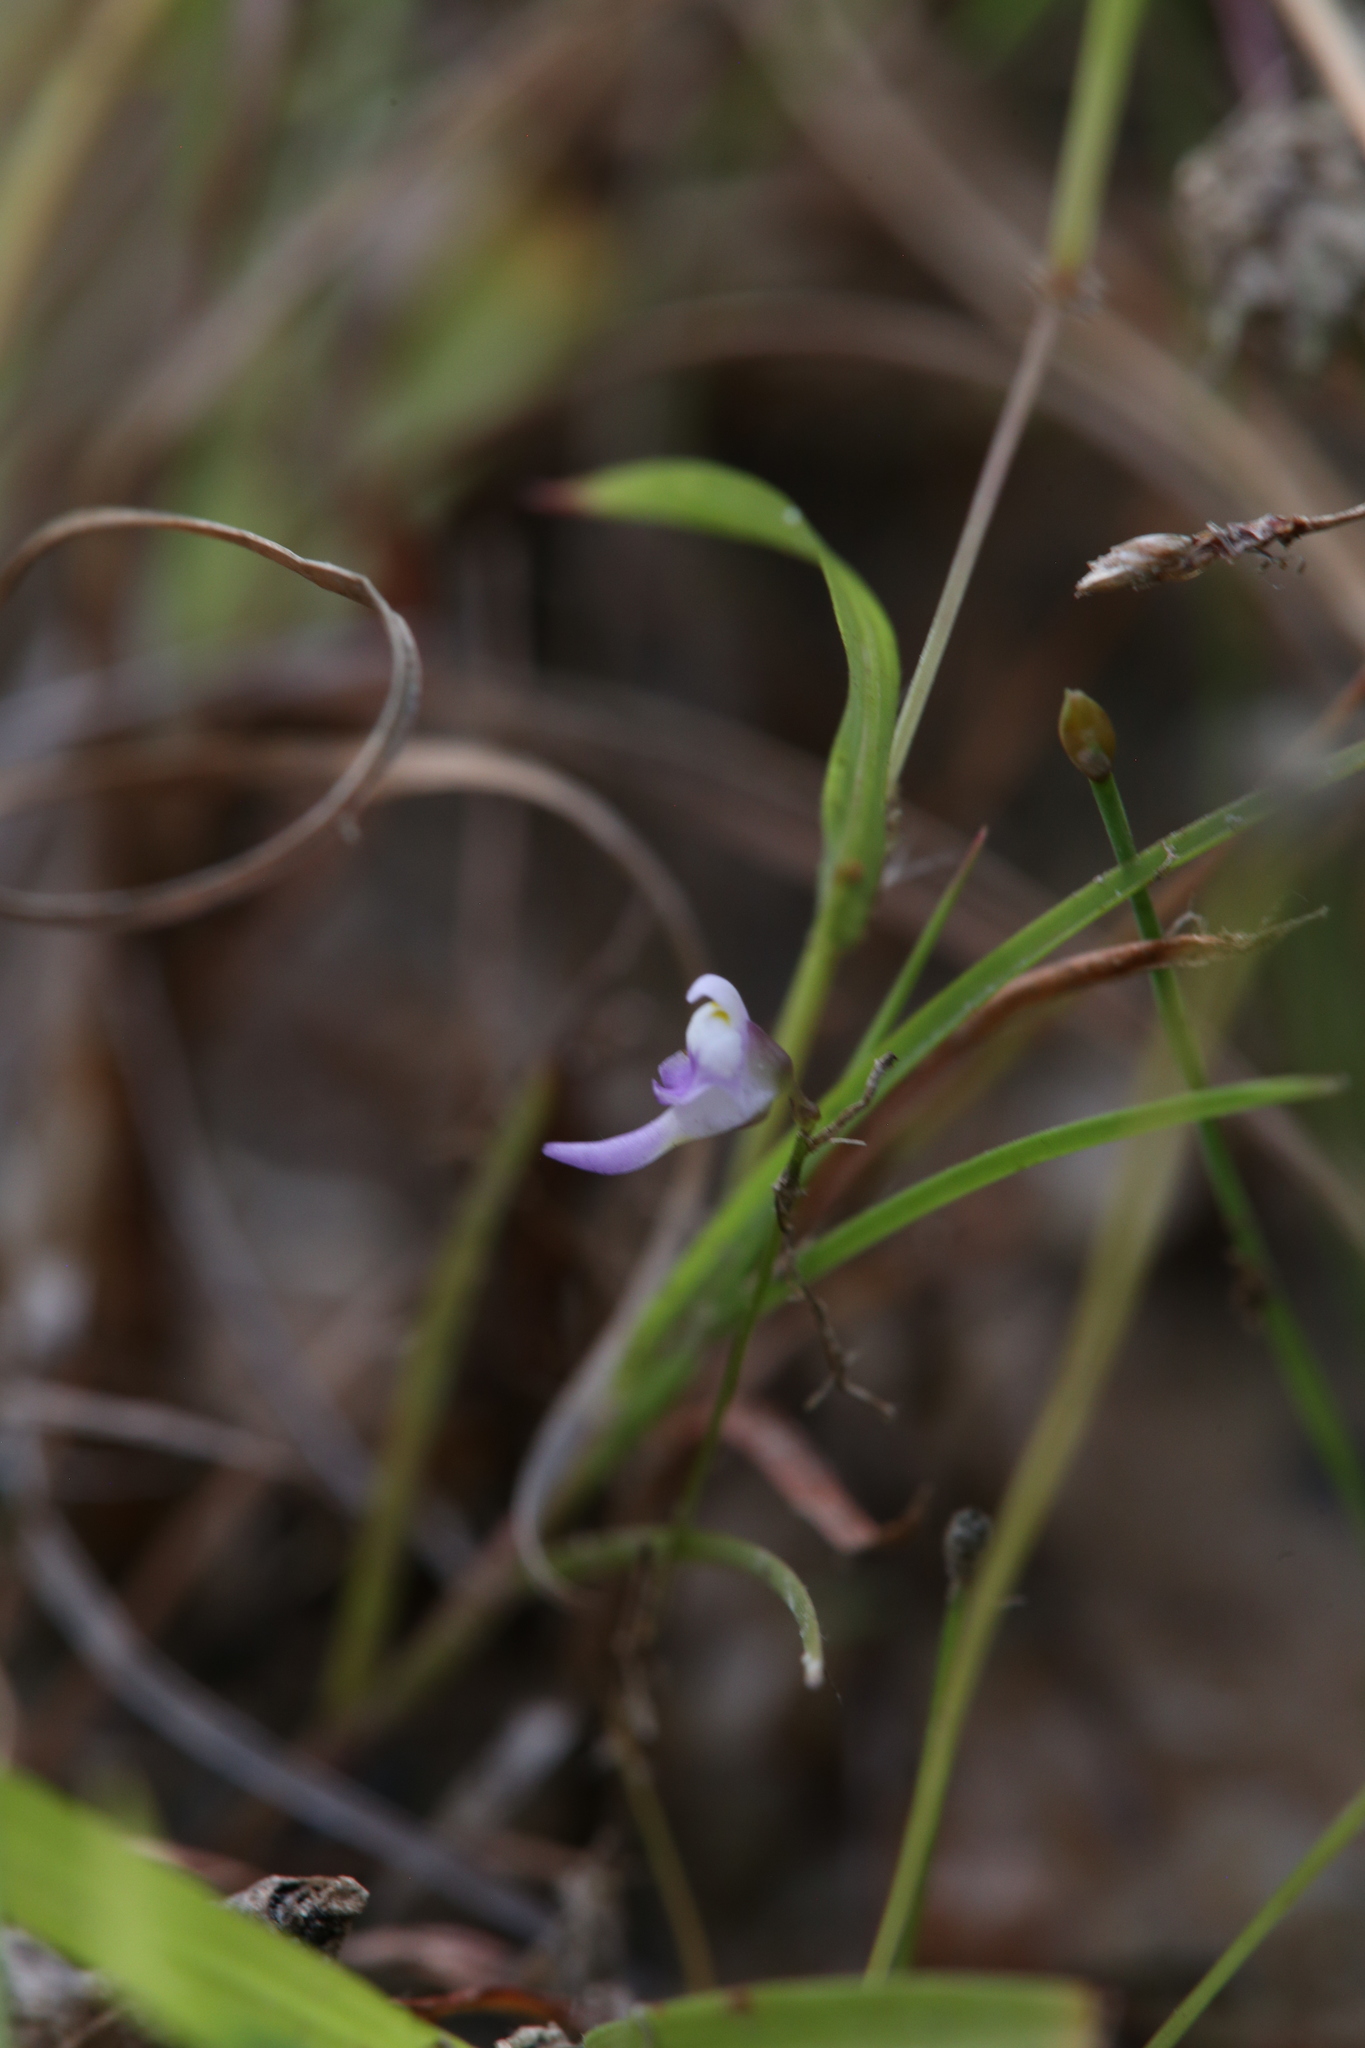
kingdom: Plantae
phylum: Tracheophyta
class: Magnoliopsida
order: Lamiales
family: Lentibulariaceae
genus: Utricularia
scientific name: Utricularia geoffrayi
